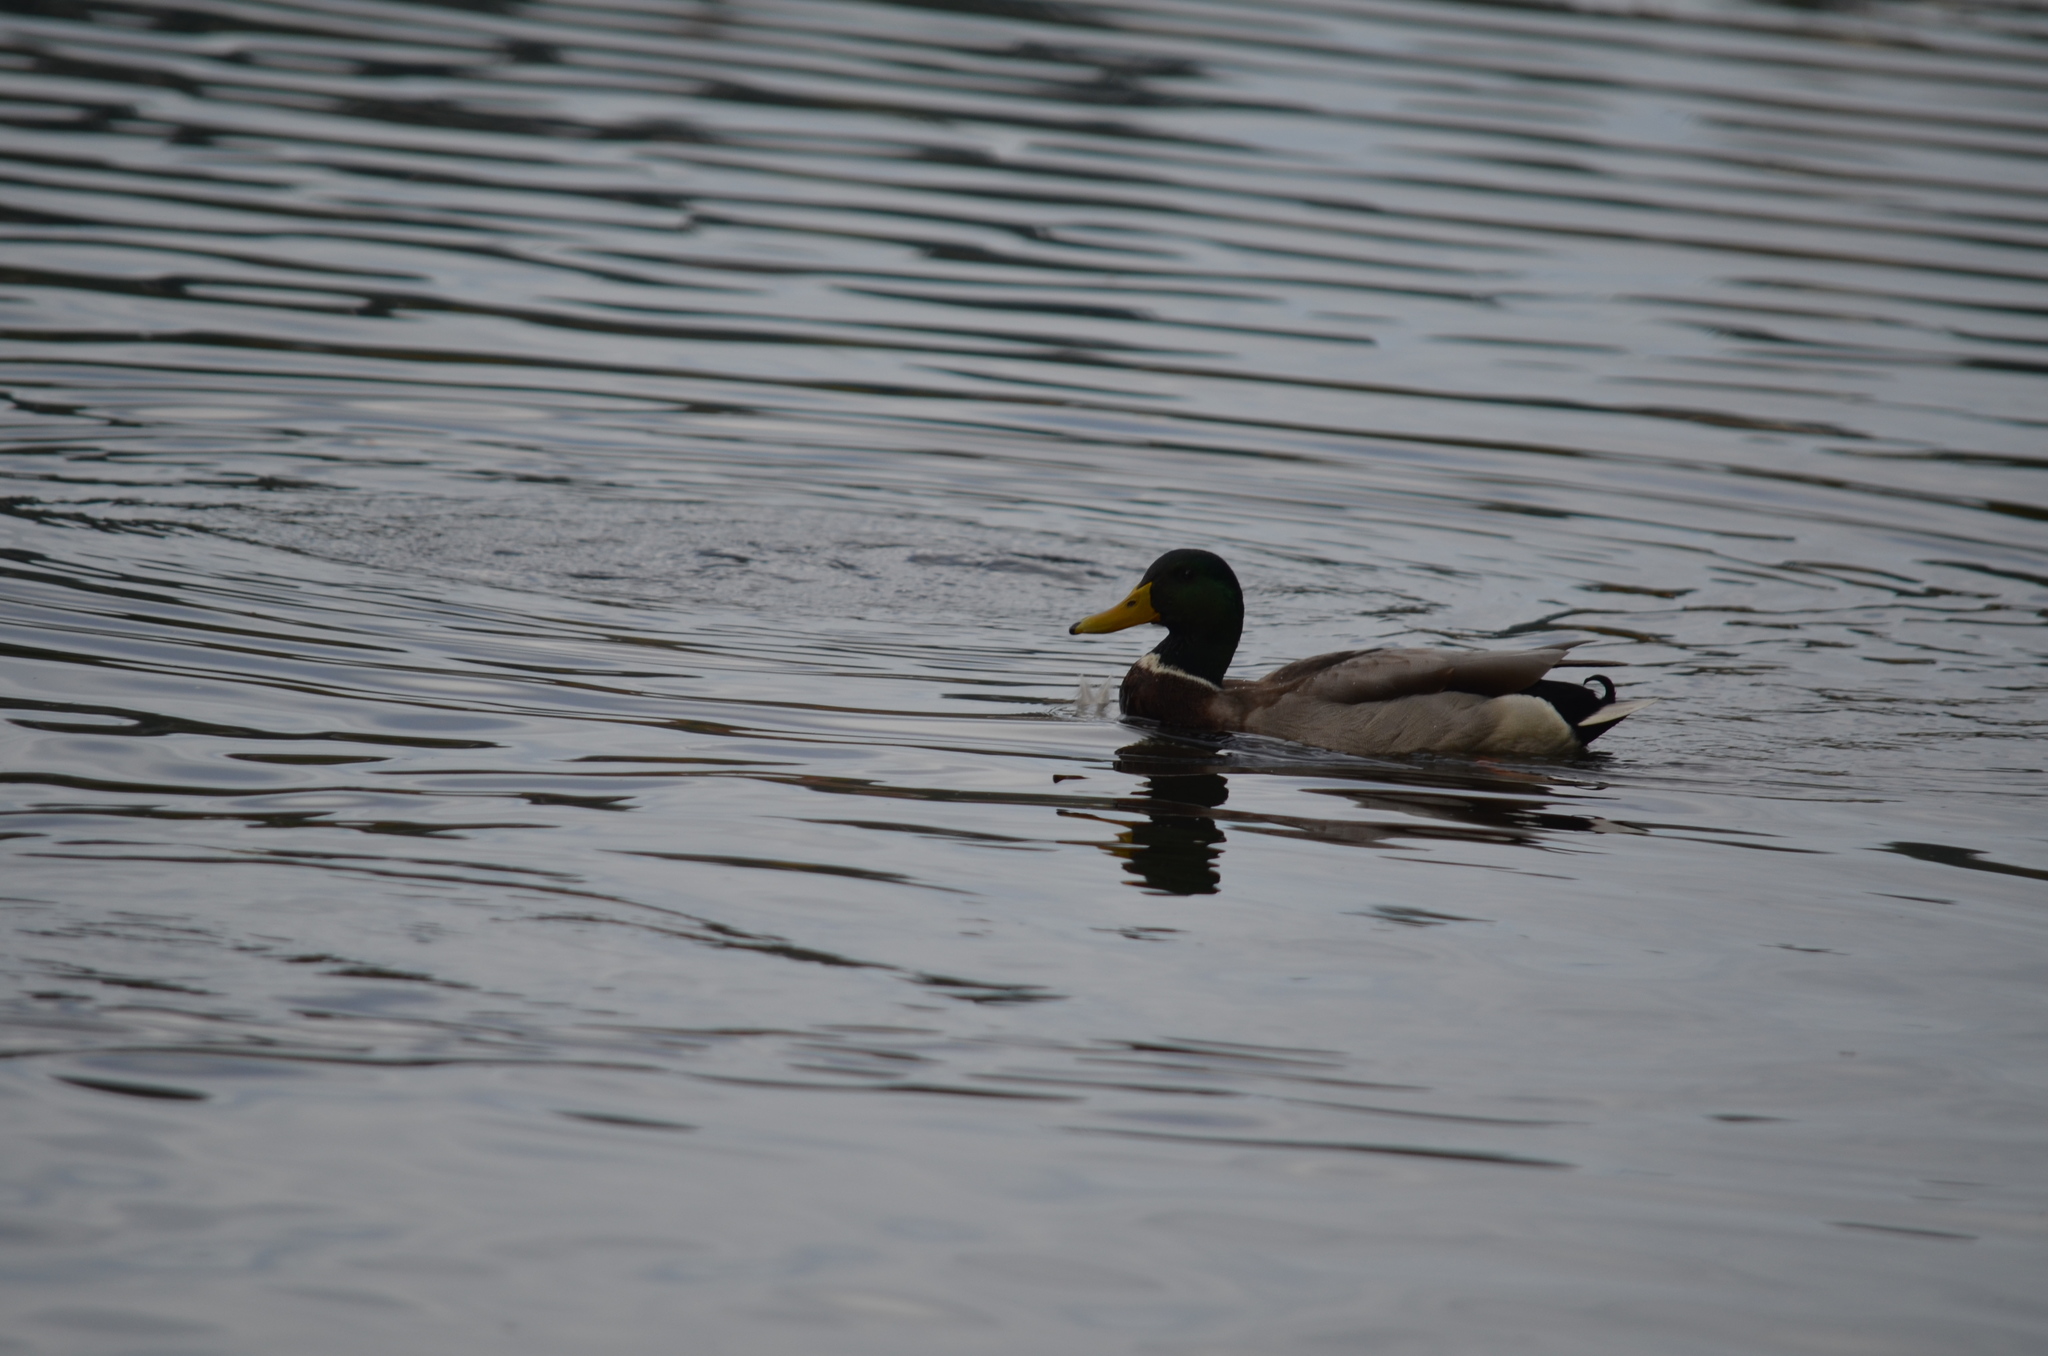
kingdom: Animalia
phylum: Chordata
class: Aves
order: Anseriformes
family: Anatidae
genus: Anas
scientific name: Anas platyrhynchos
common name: Mallard
